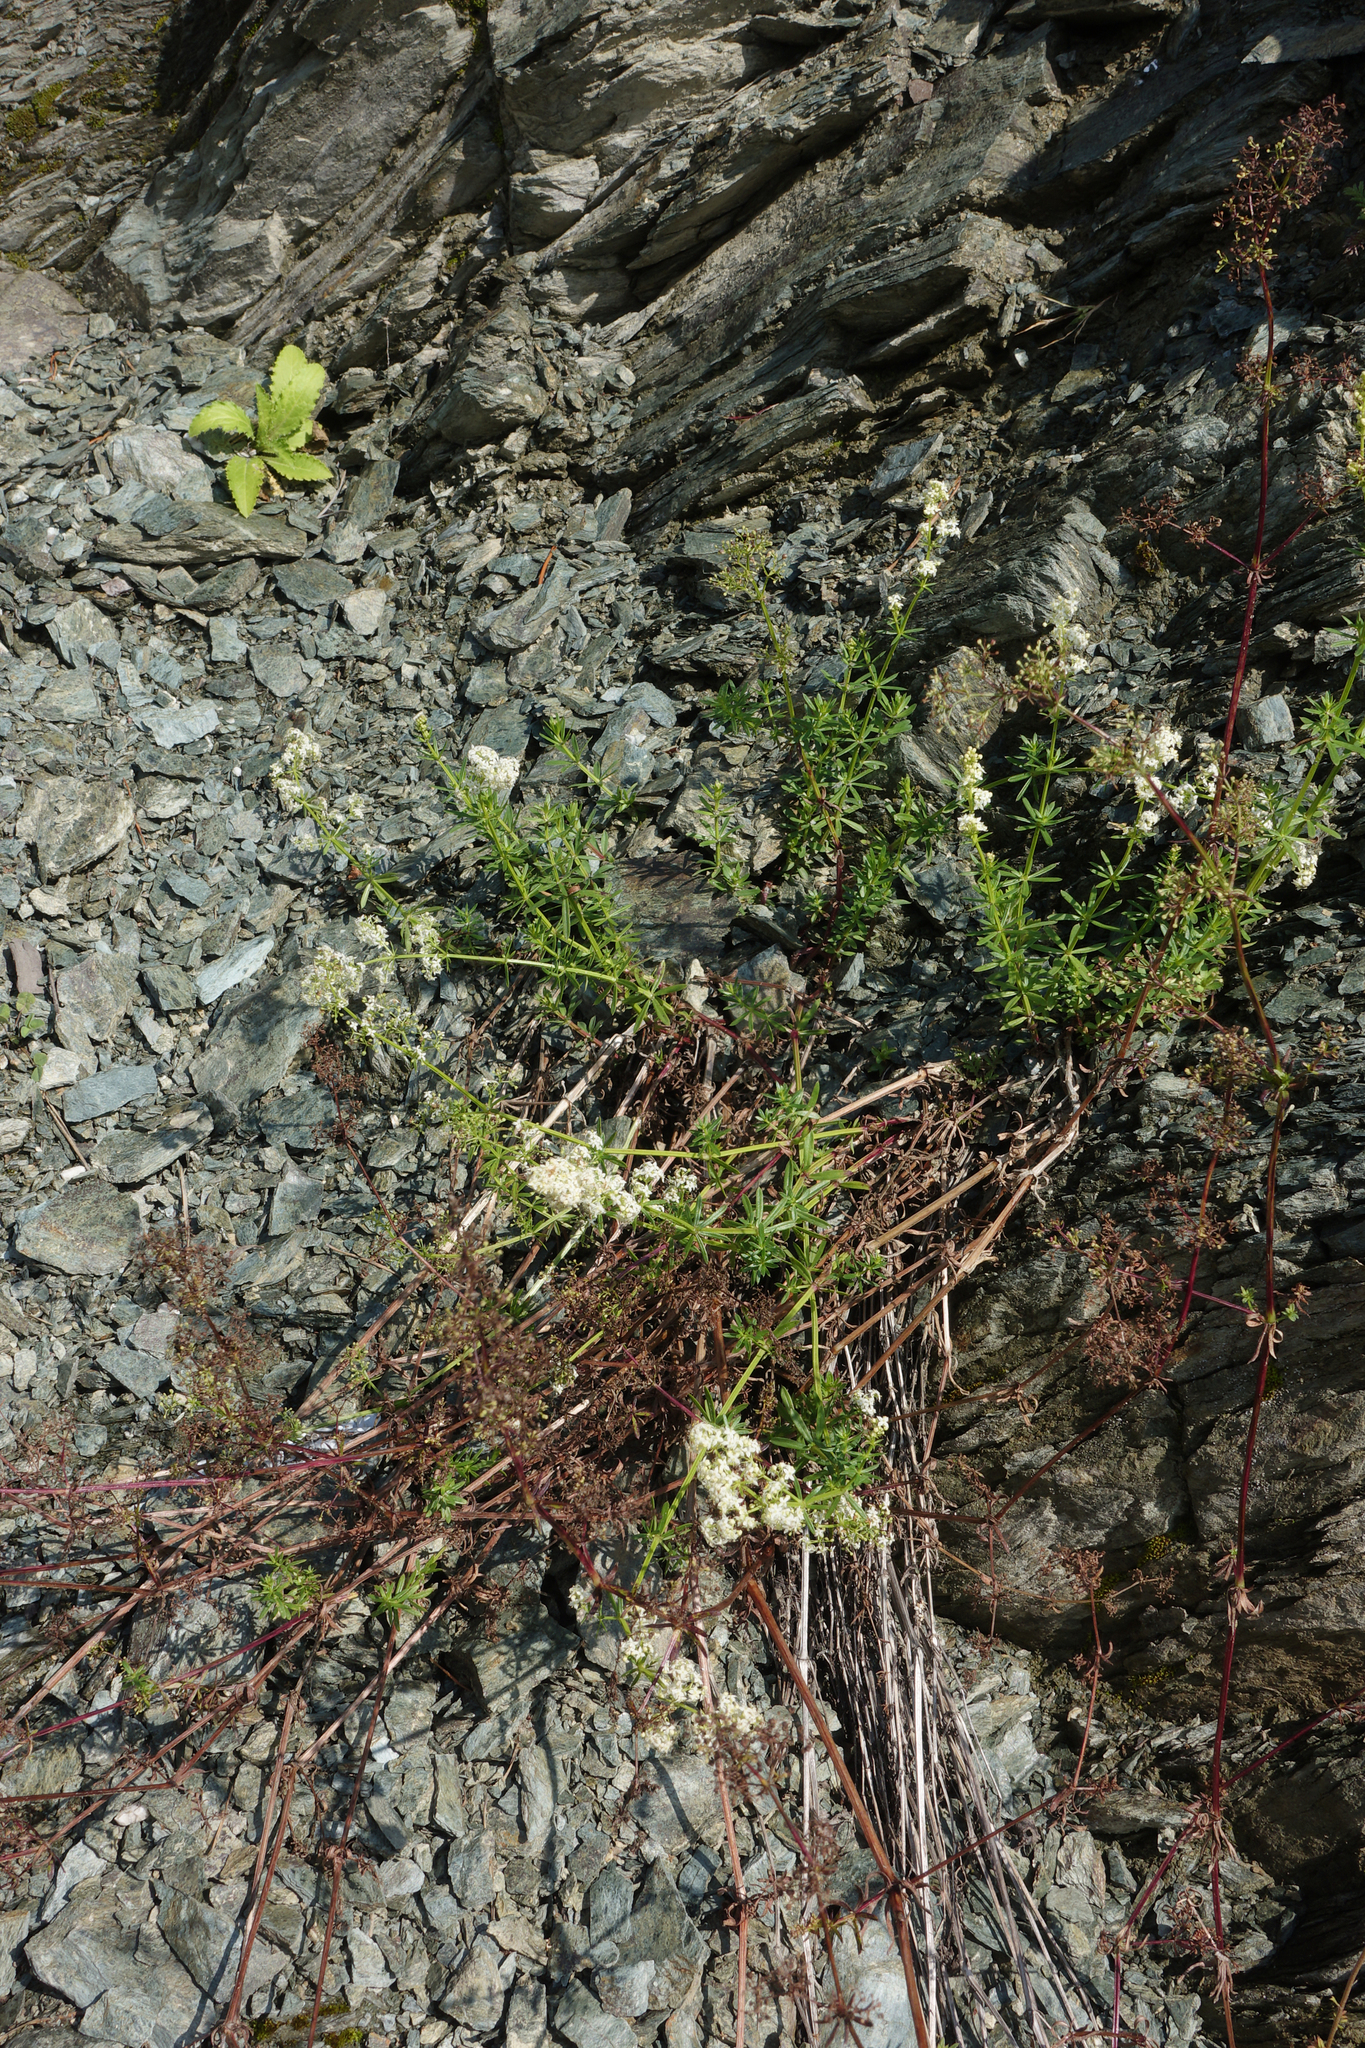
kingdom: Plantae
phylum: Tracheophyta
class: Magnoliopsida
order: Gentianales
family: Rubiaceae
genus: Galium
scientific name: Galium mollugo
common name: Hedge bedstraw
